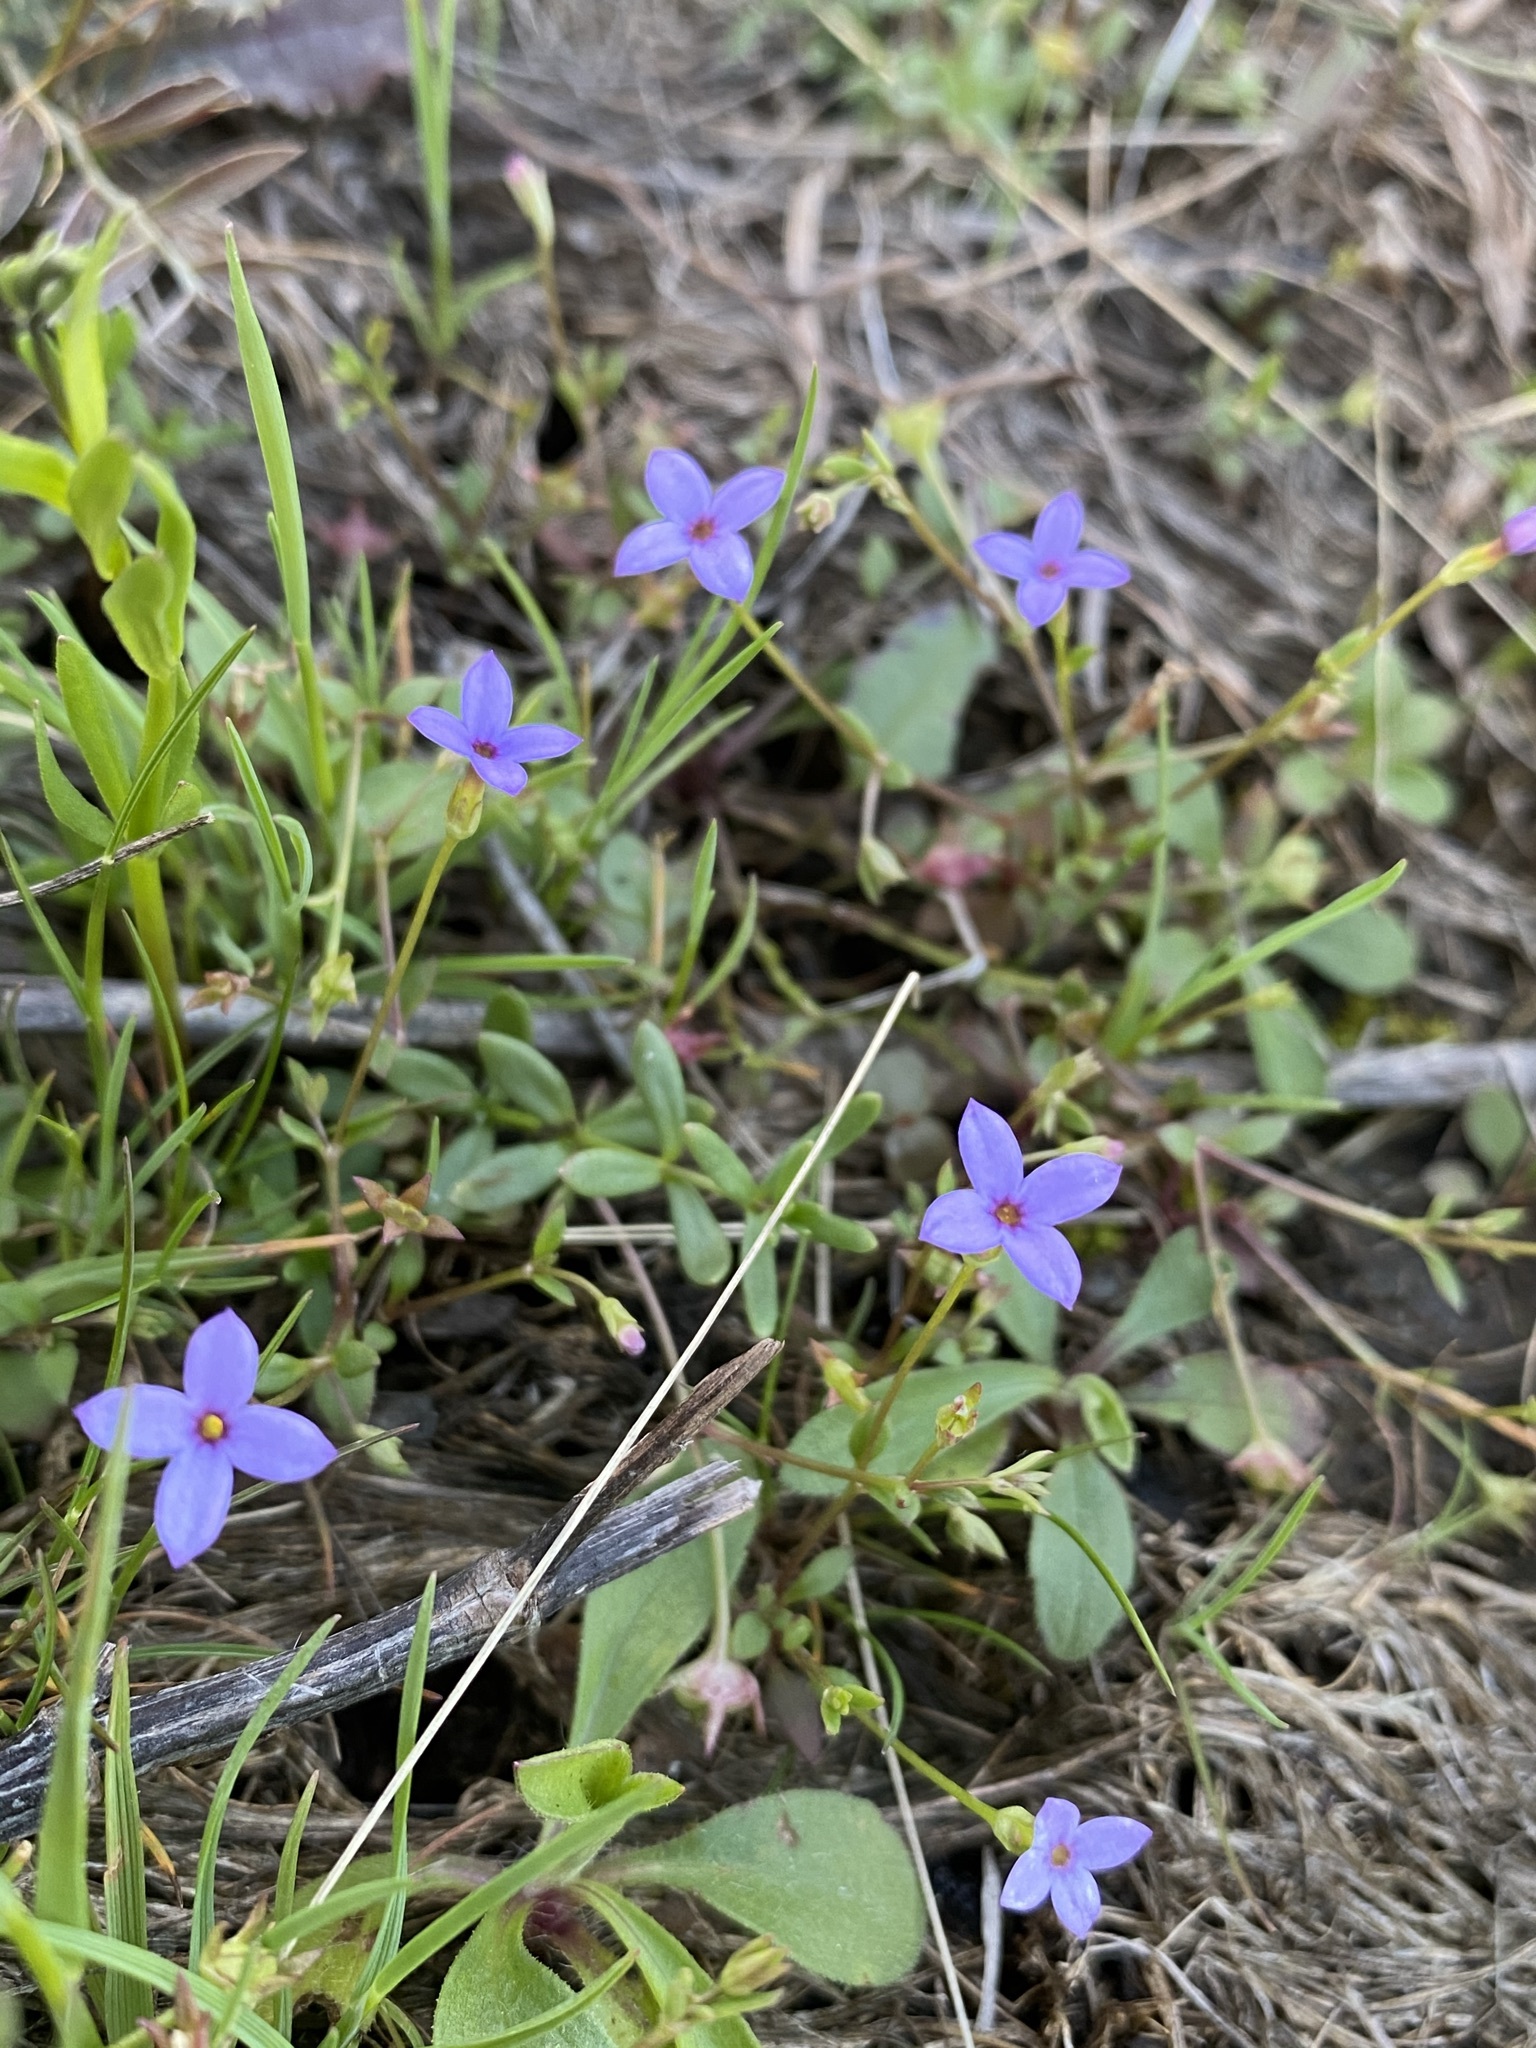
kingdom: Plantae
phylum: Tracheophyta
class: Magnoliopsida
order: Gentianales
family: Rubiaceae
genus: Houstonia
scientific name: Houstonia pusilla
